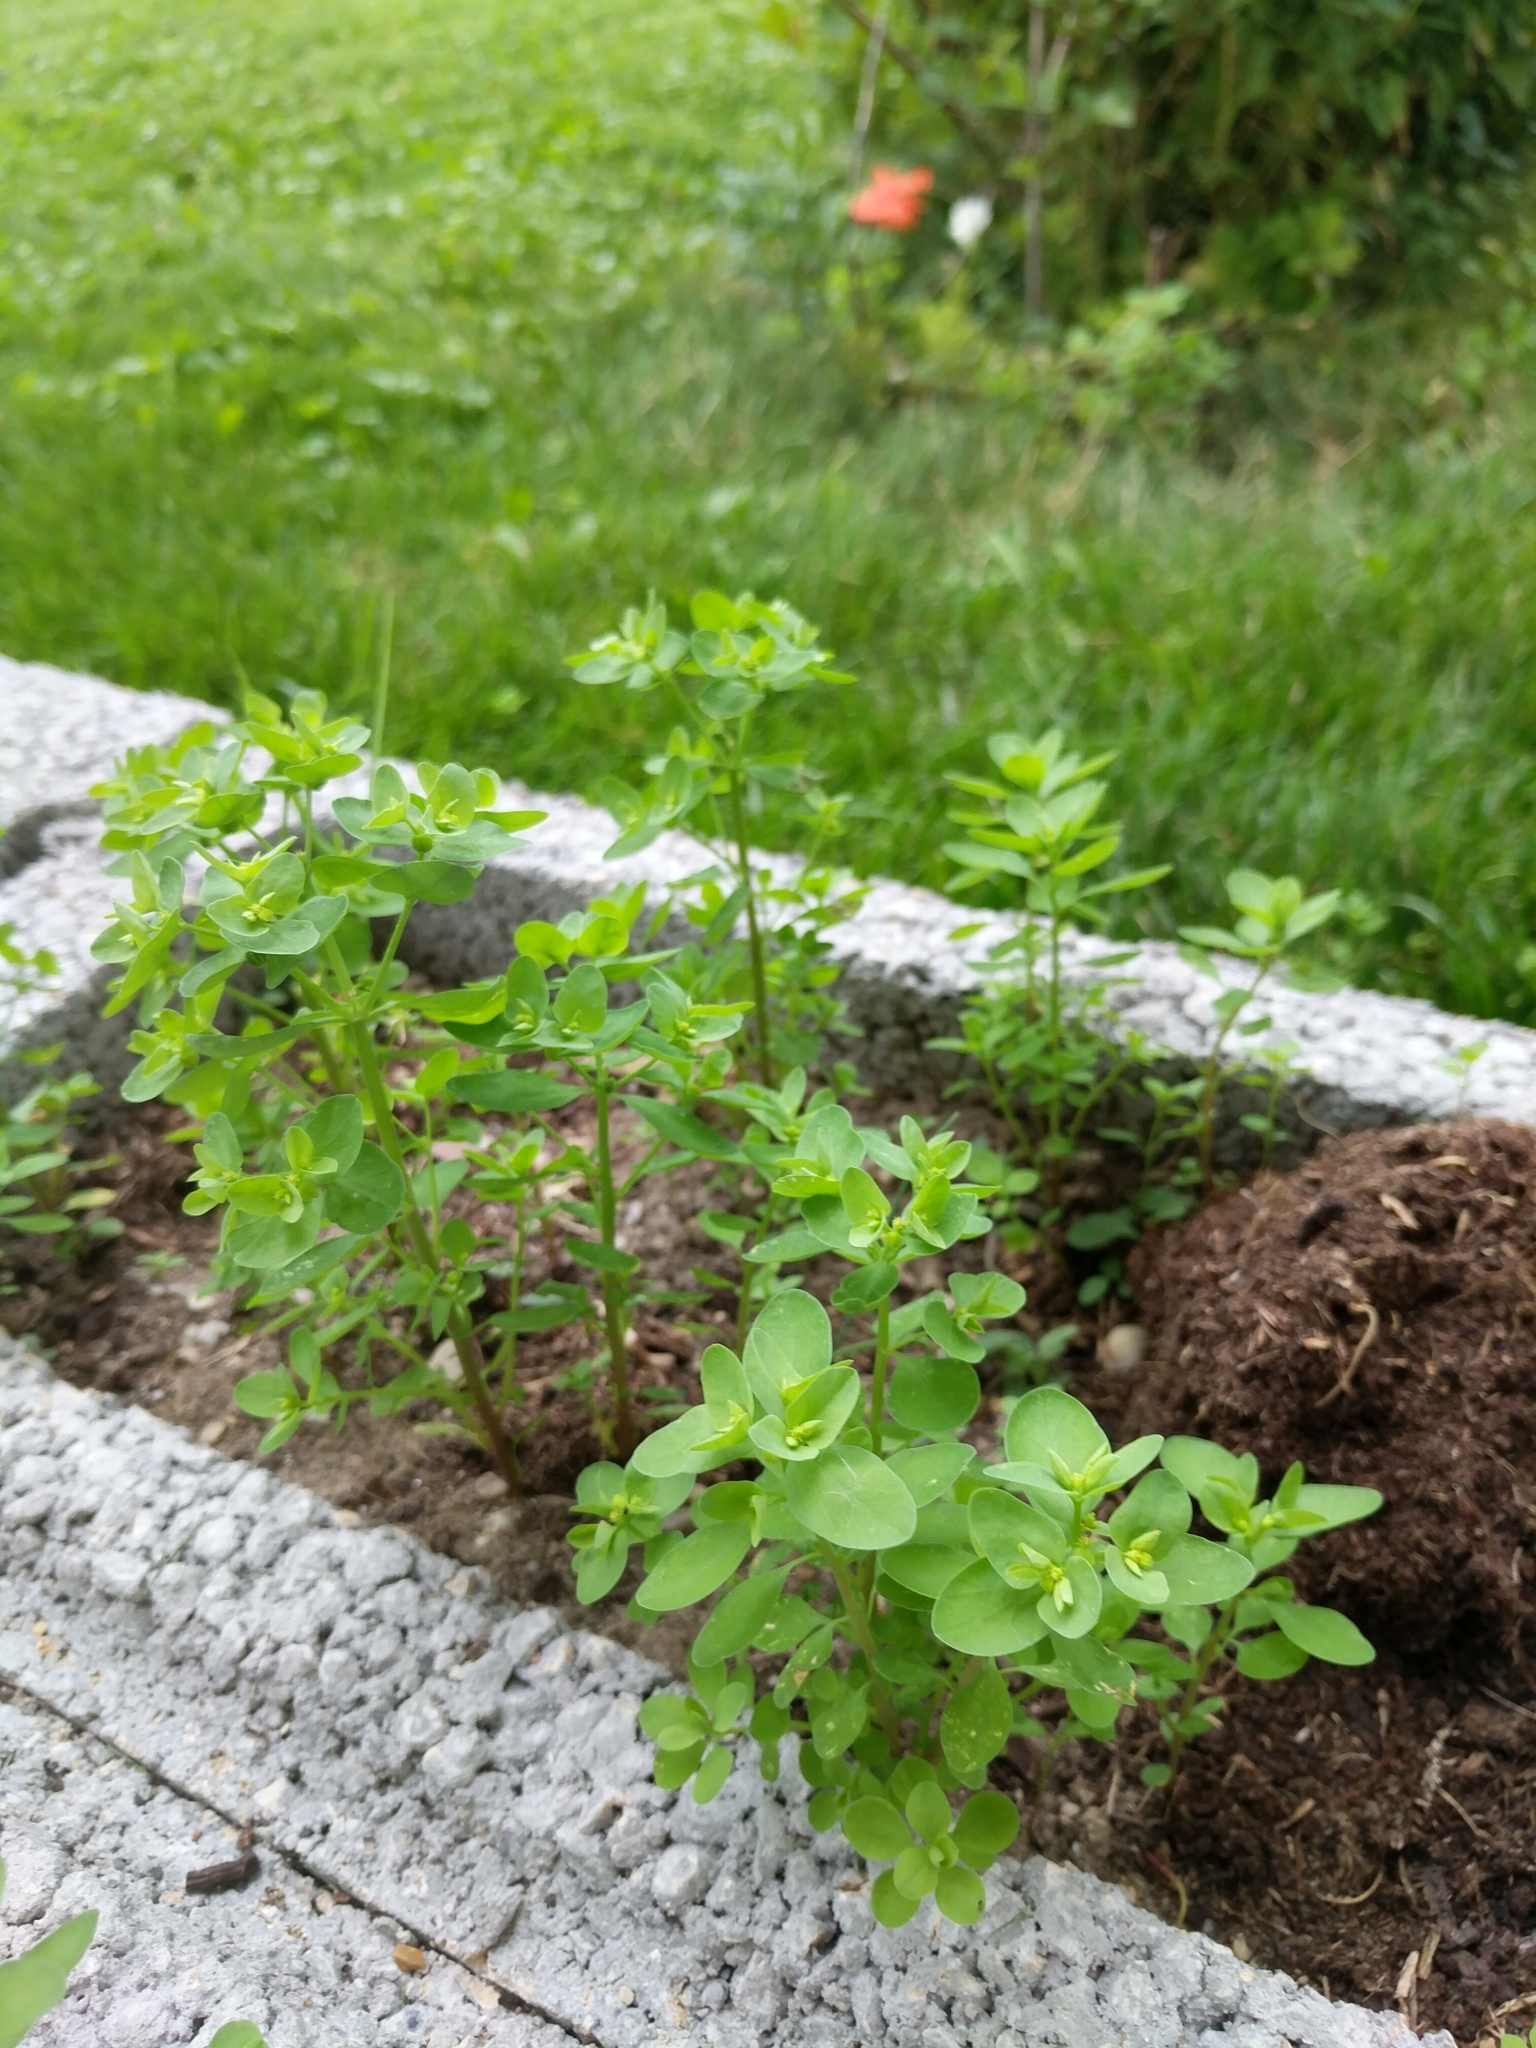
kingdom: Plantae
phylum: Tracheophyta
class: Magnoliopsida
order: Malpighiales
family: Euphorbiaceae
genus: Euphorbia
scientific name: Euphorbia peplus
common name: Petty spurge
